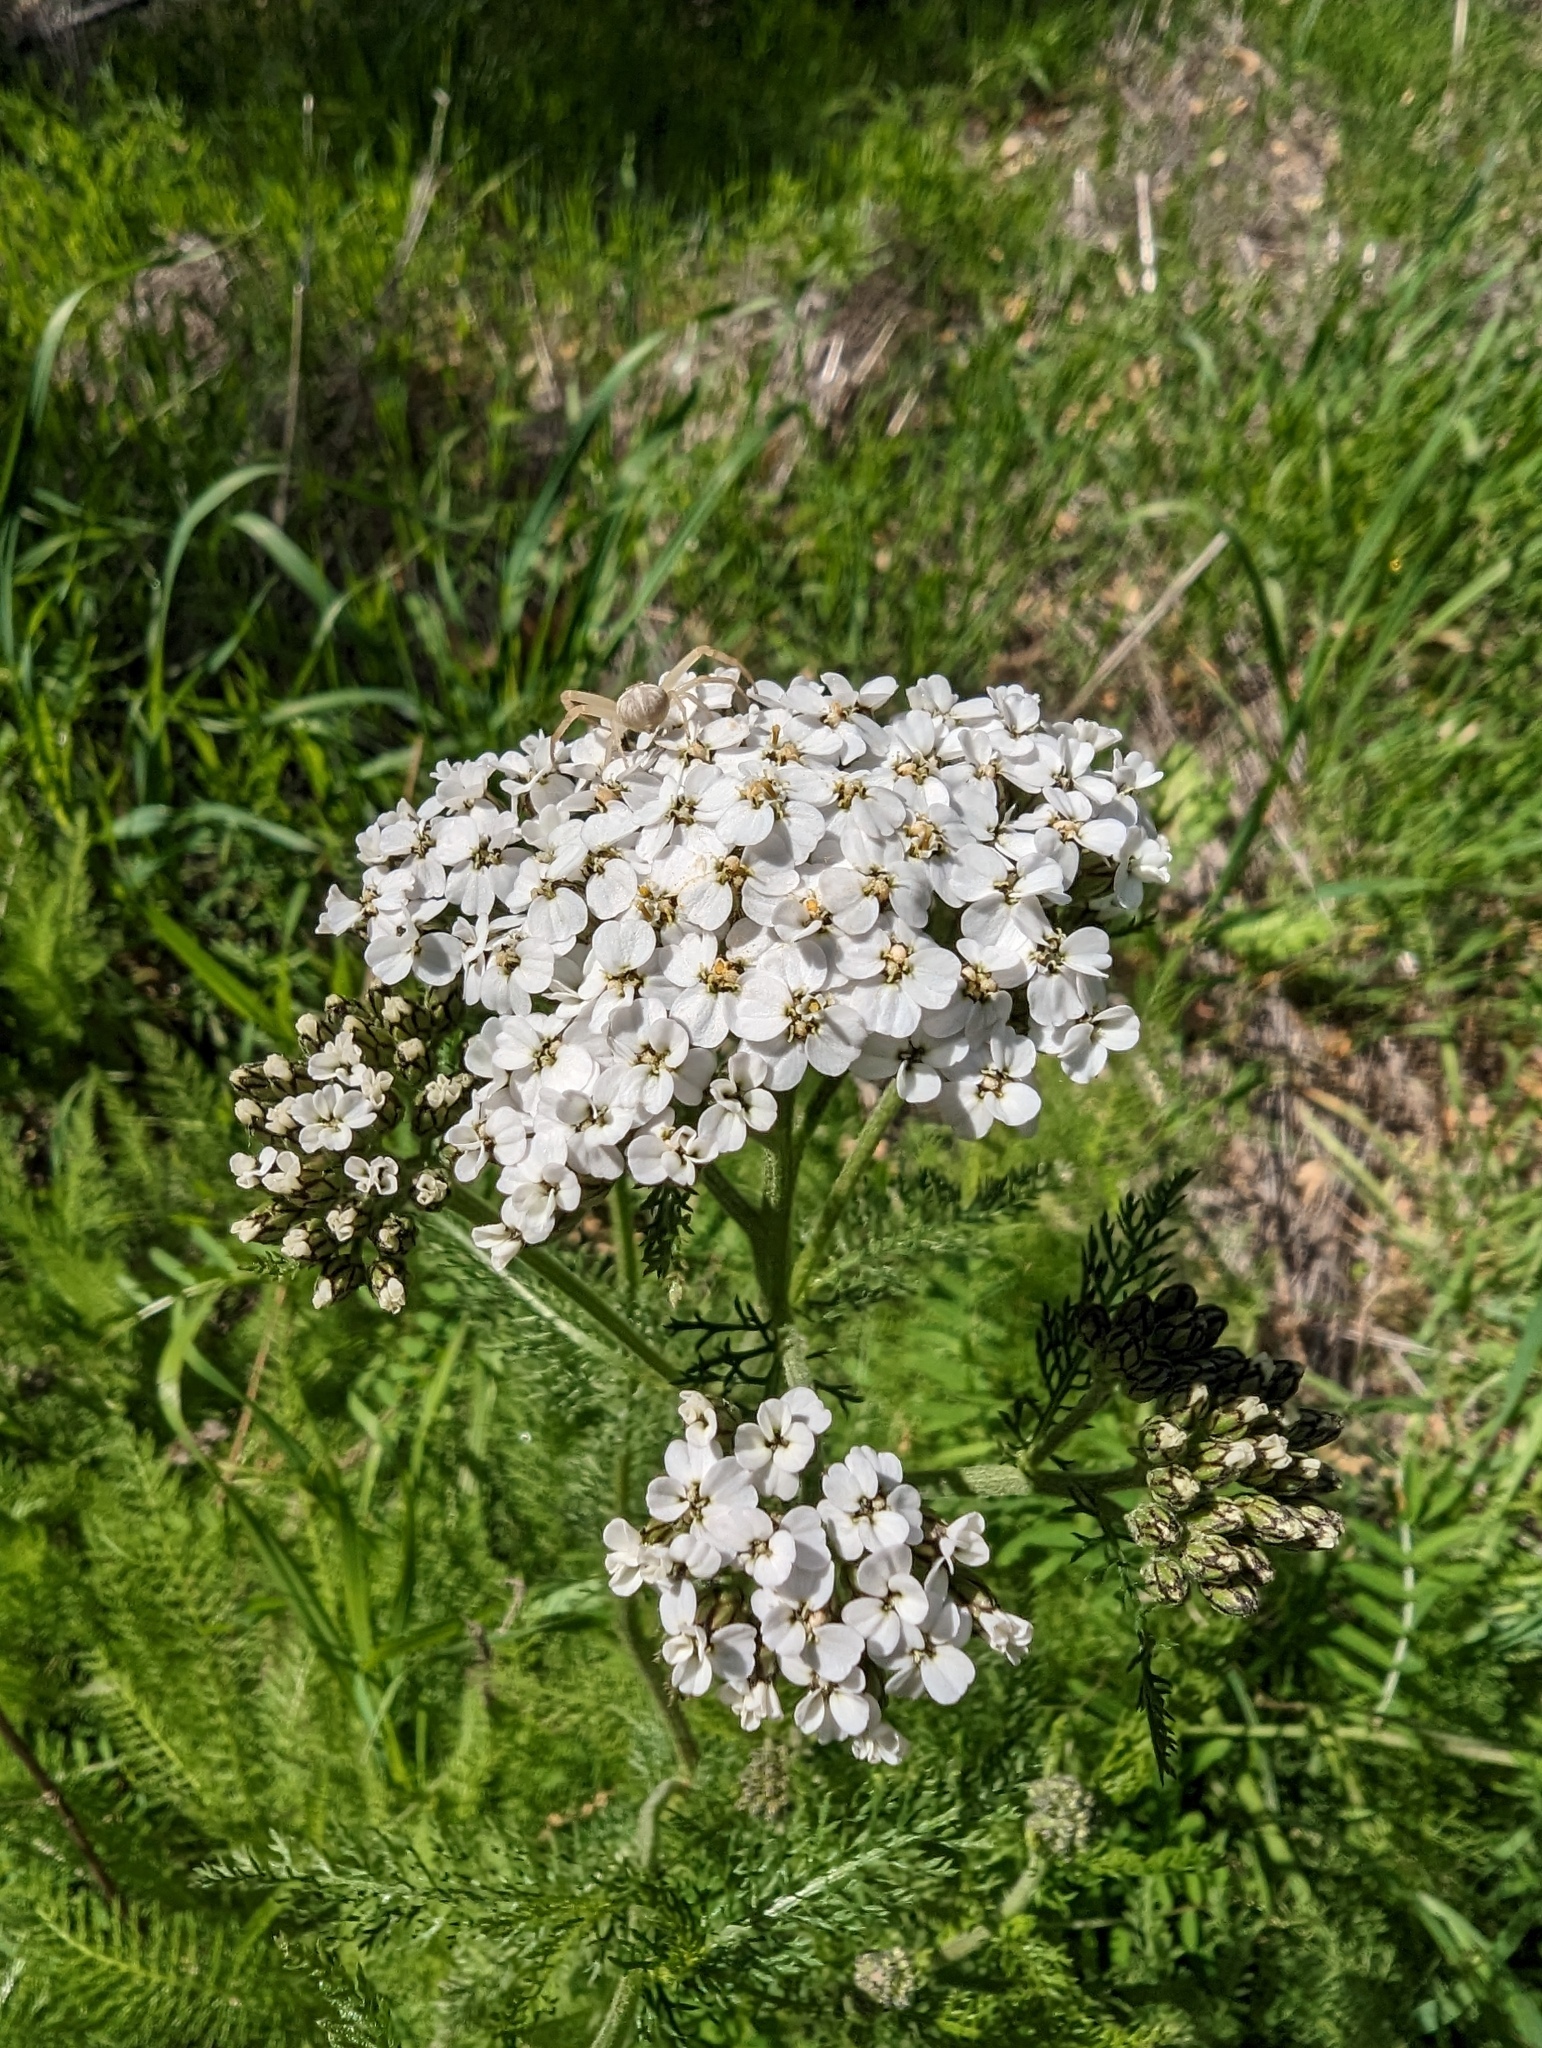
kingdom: Plantae
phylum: Tracheophyta
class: Magnoliopsida
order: Asterales
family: Asteraceae
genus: Achillea
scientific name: Achillea millefolium
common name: Yarrow
